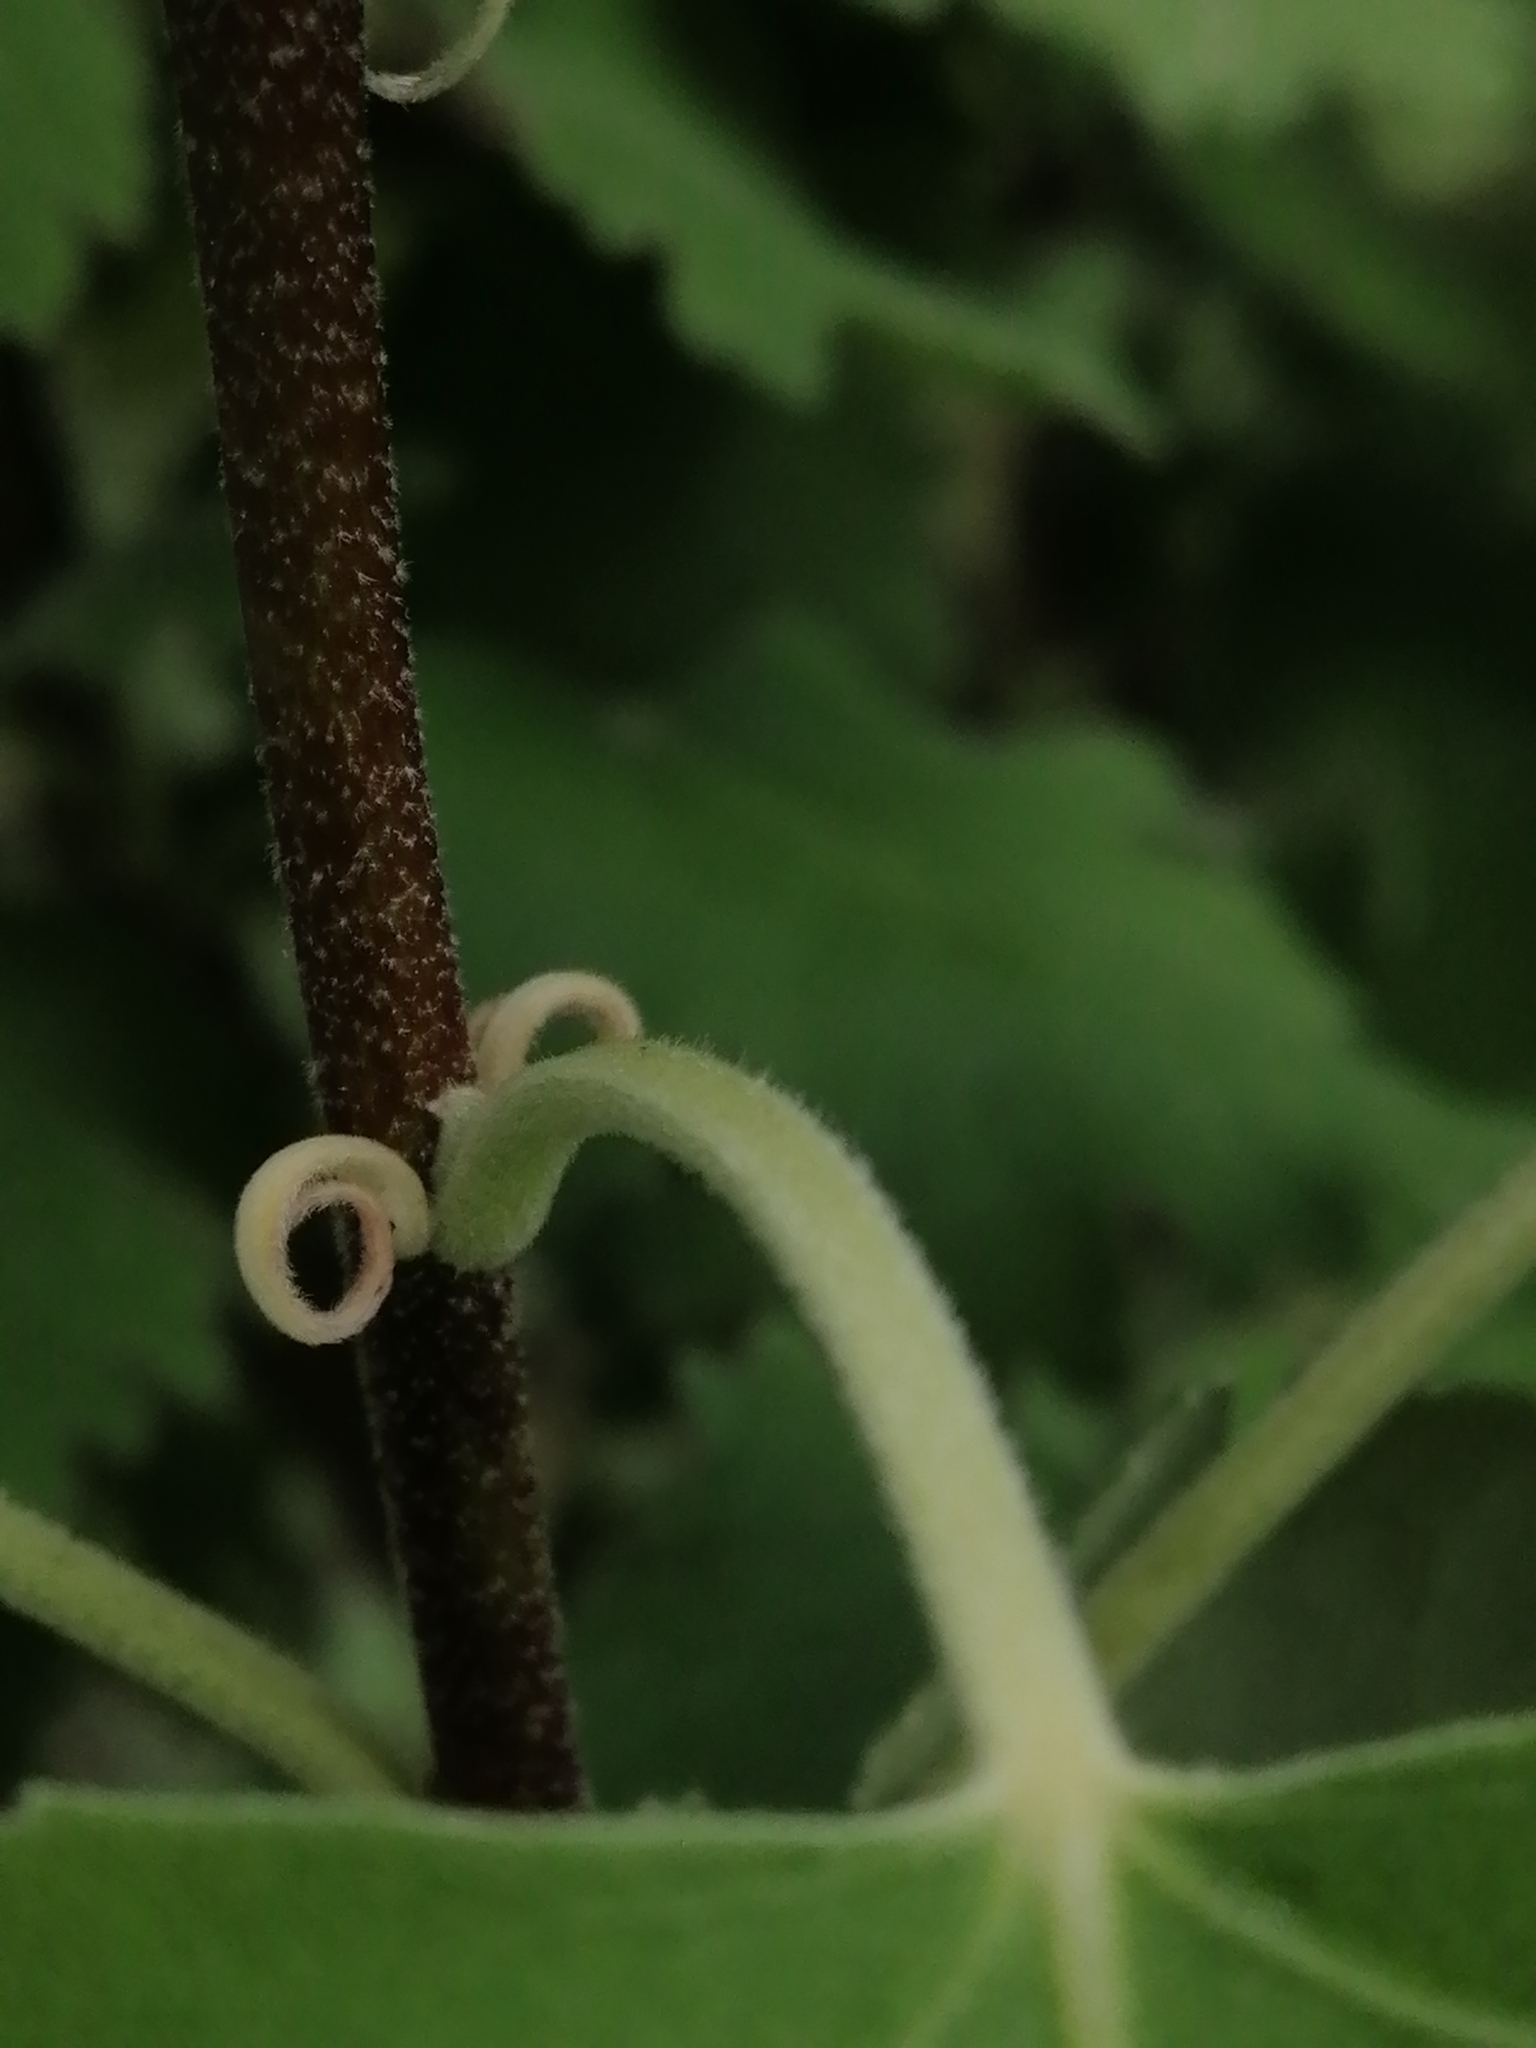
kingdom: Plantae
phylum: Tracheophyta
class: Magnoliopsida
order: Malvales
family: Malvaceae
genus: Hoheria
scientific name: Hoheria lyallii
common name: Lacebark
